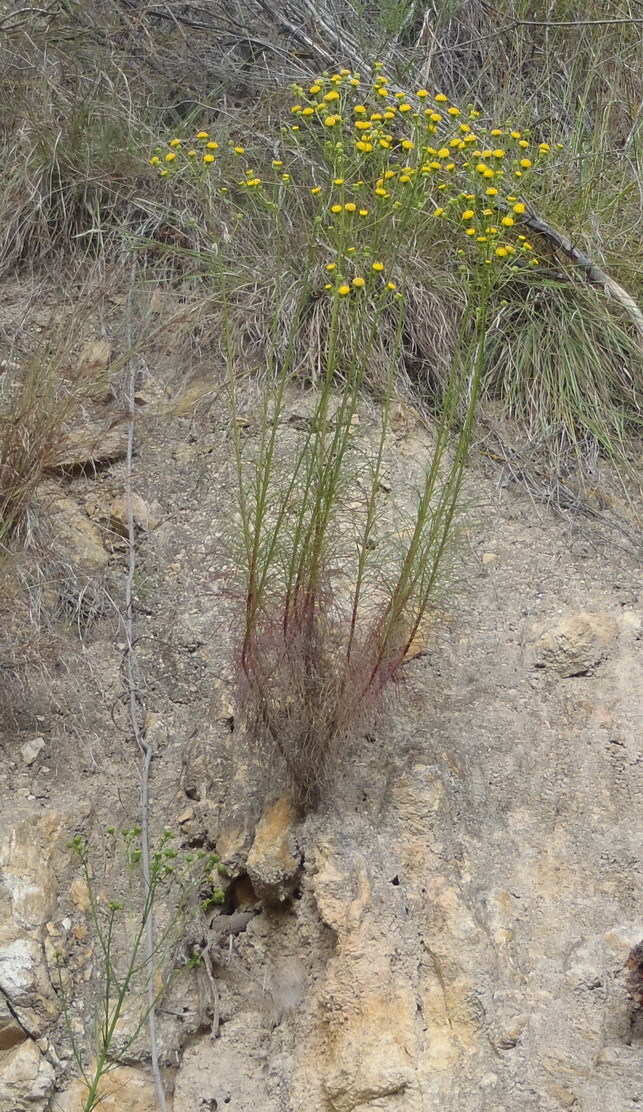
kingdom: Plantae
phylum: Tracheophyta
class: Magnoliopsida
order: Asterales
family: Asteraceae
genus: Senecio
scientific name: Senecio chrysocoma
